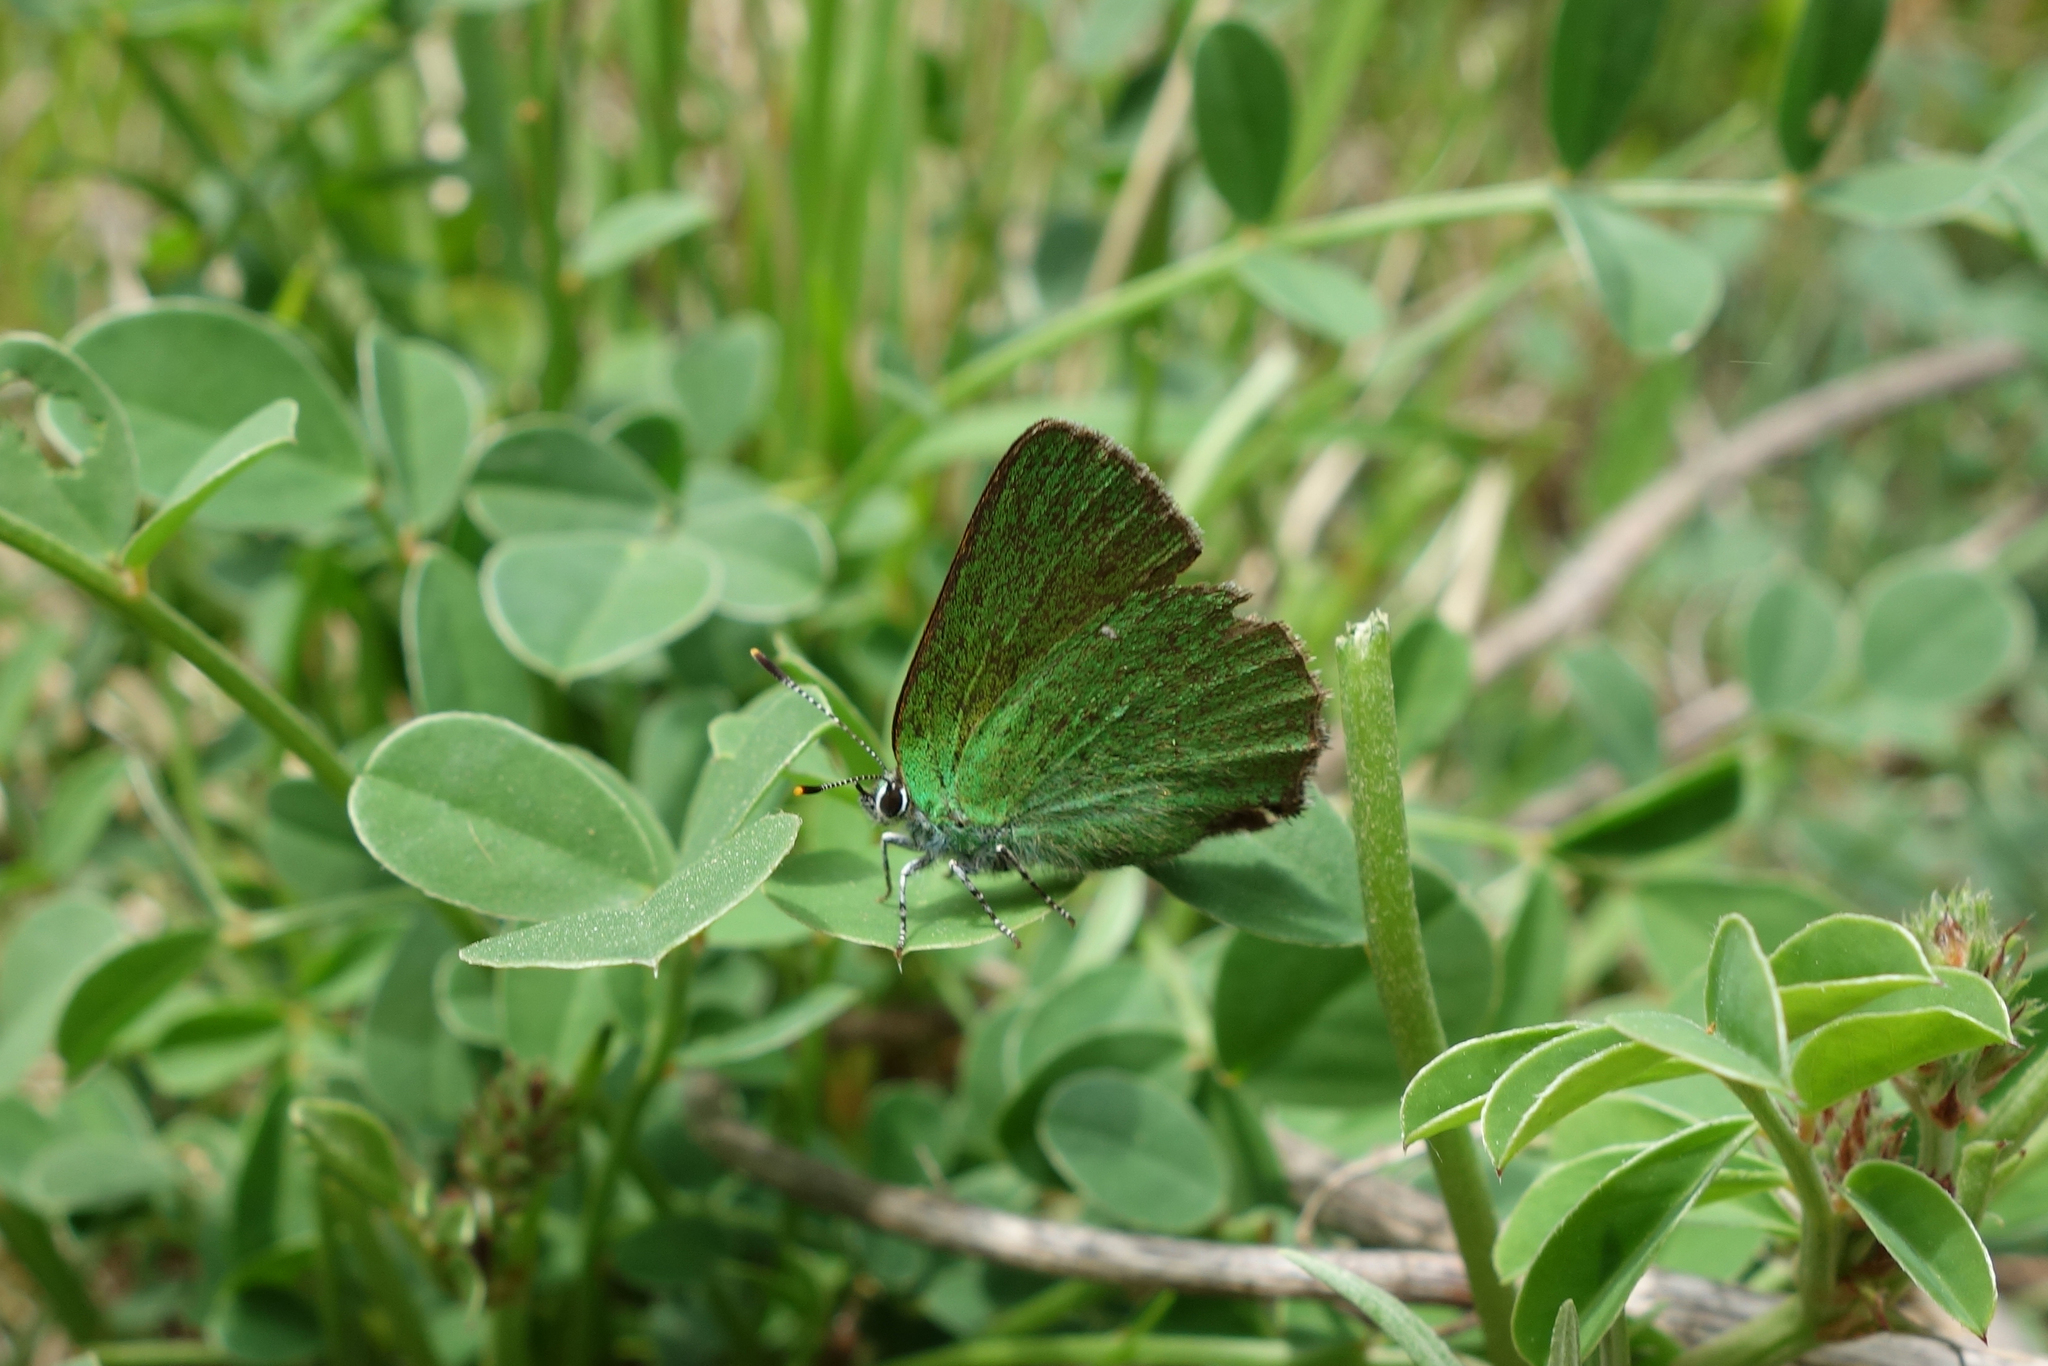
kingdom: Animalia
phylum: Arthropoda
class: Insecta
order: Lepidoptera
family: Lycaenidae
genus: Callophrys
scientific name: Callophrys rubi
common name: Green hairstreak
